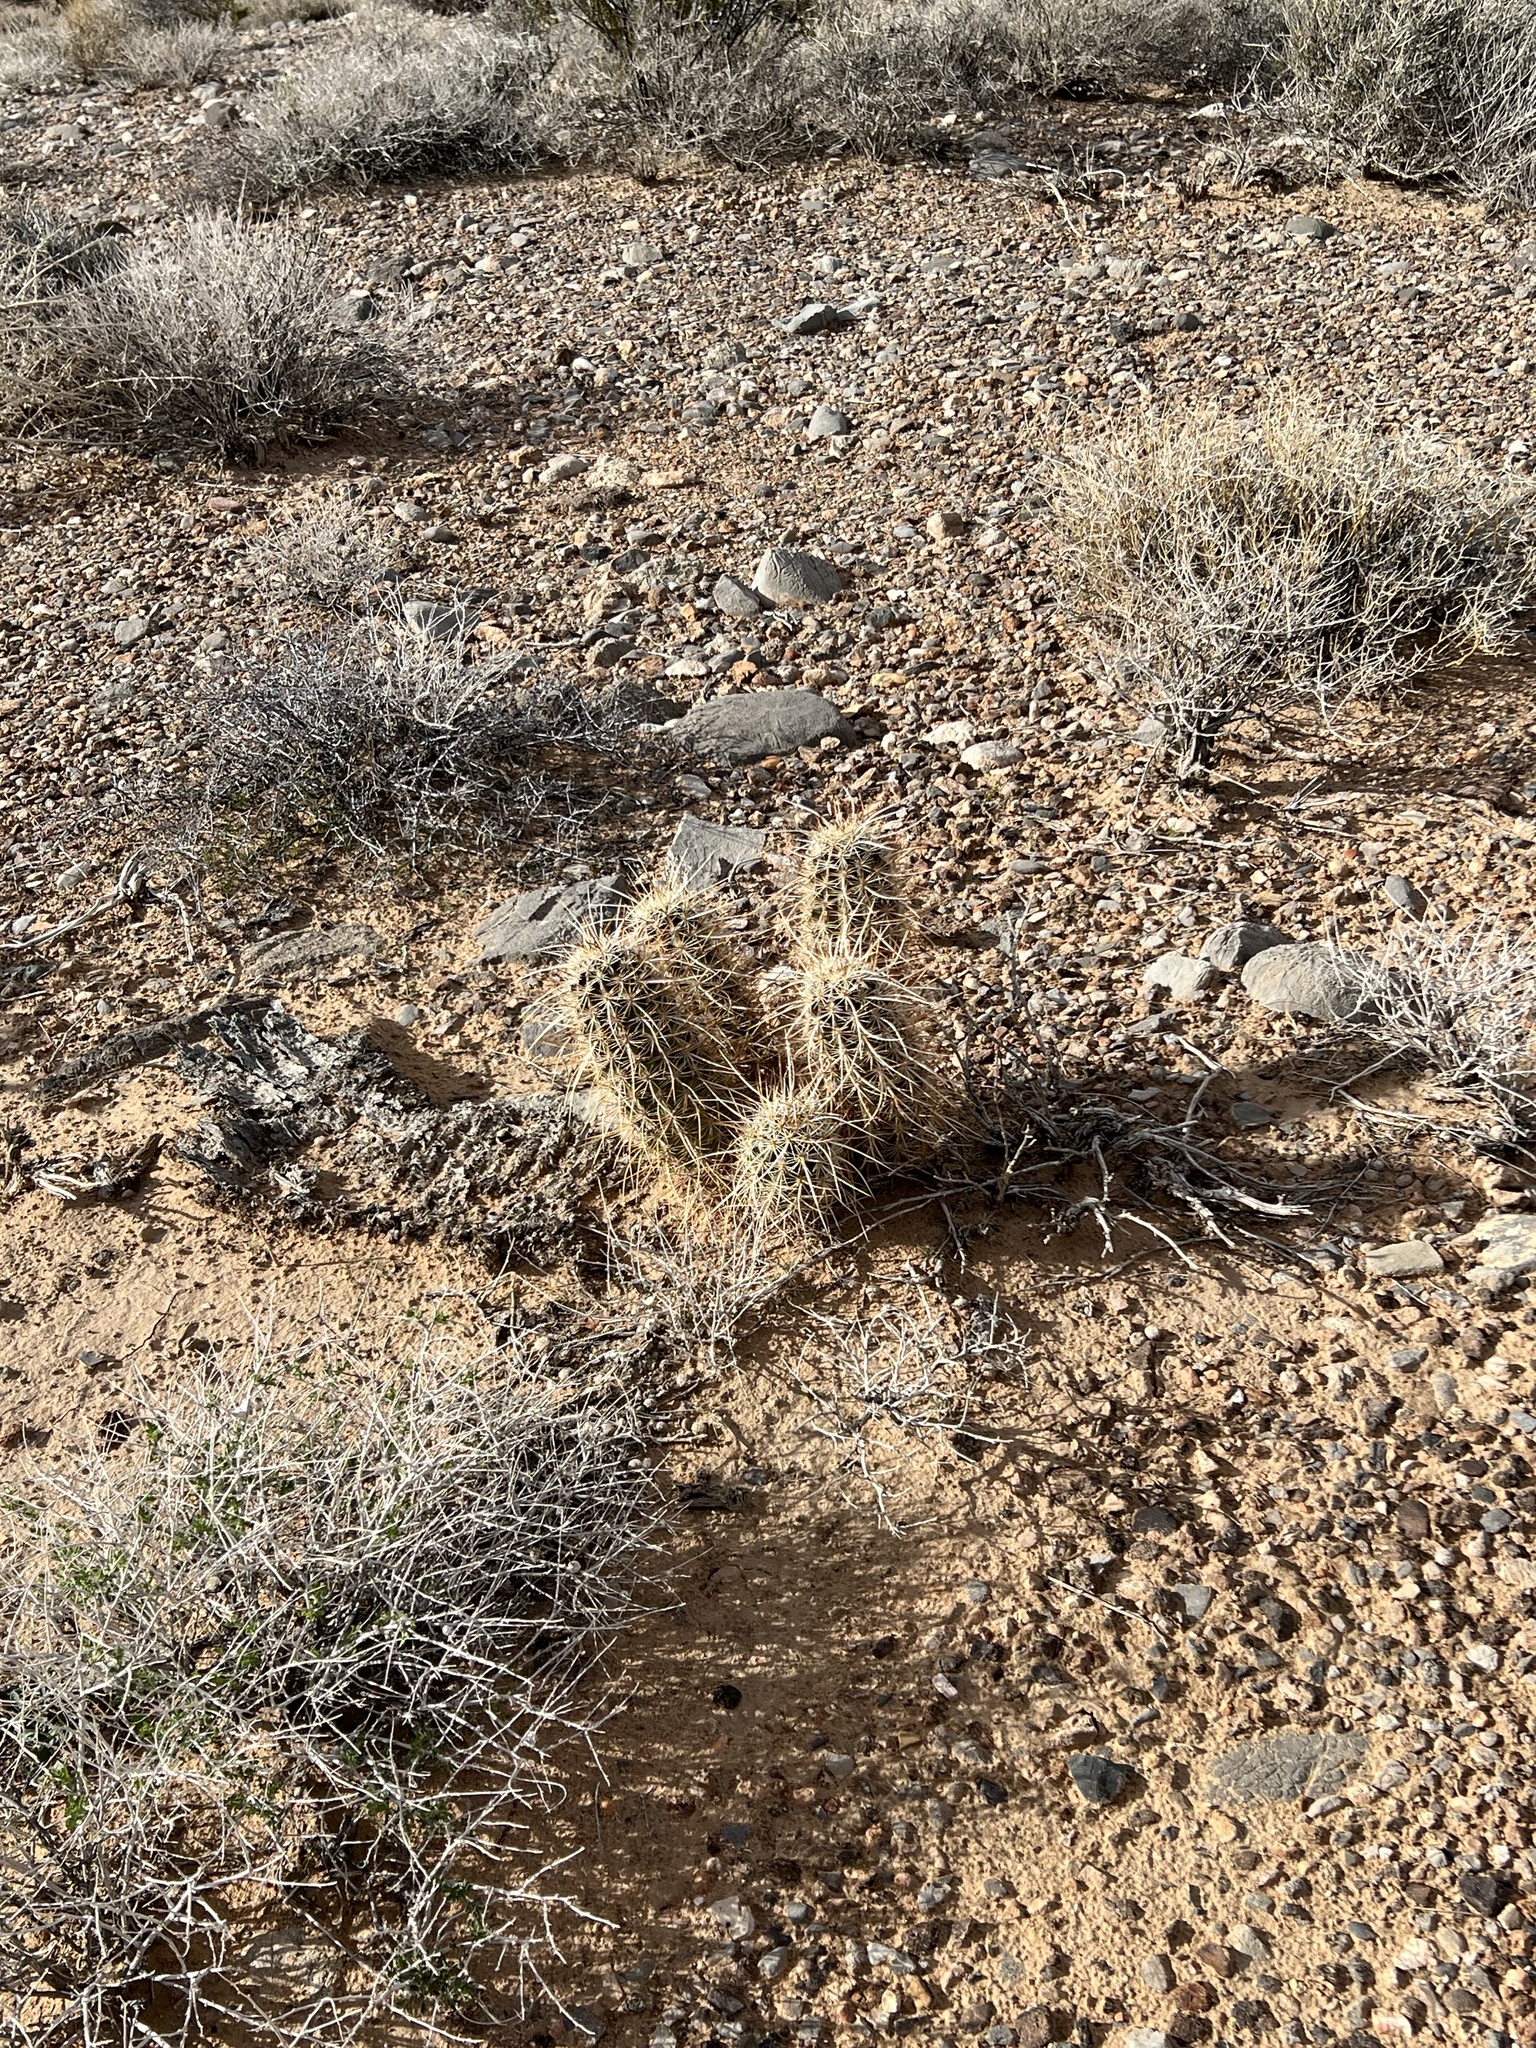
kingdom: Plantae
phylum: Tracheophyta
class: Magnoliopsida
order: Caryophyllales
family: Cactaceae
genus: Echinocereus
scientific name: Echinocereus engelmannii
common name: Engelmann's hedgehog cactus
